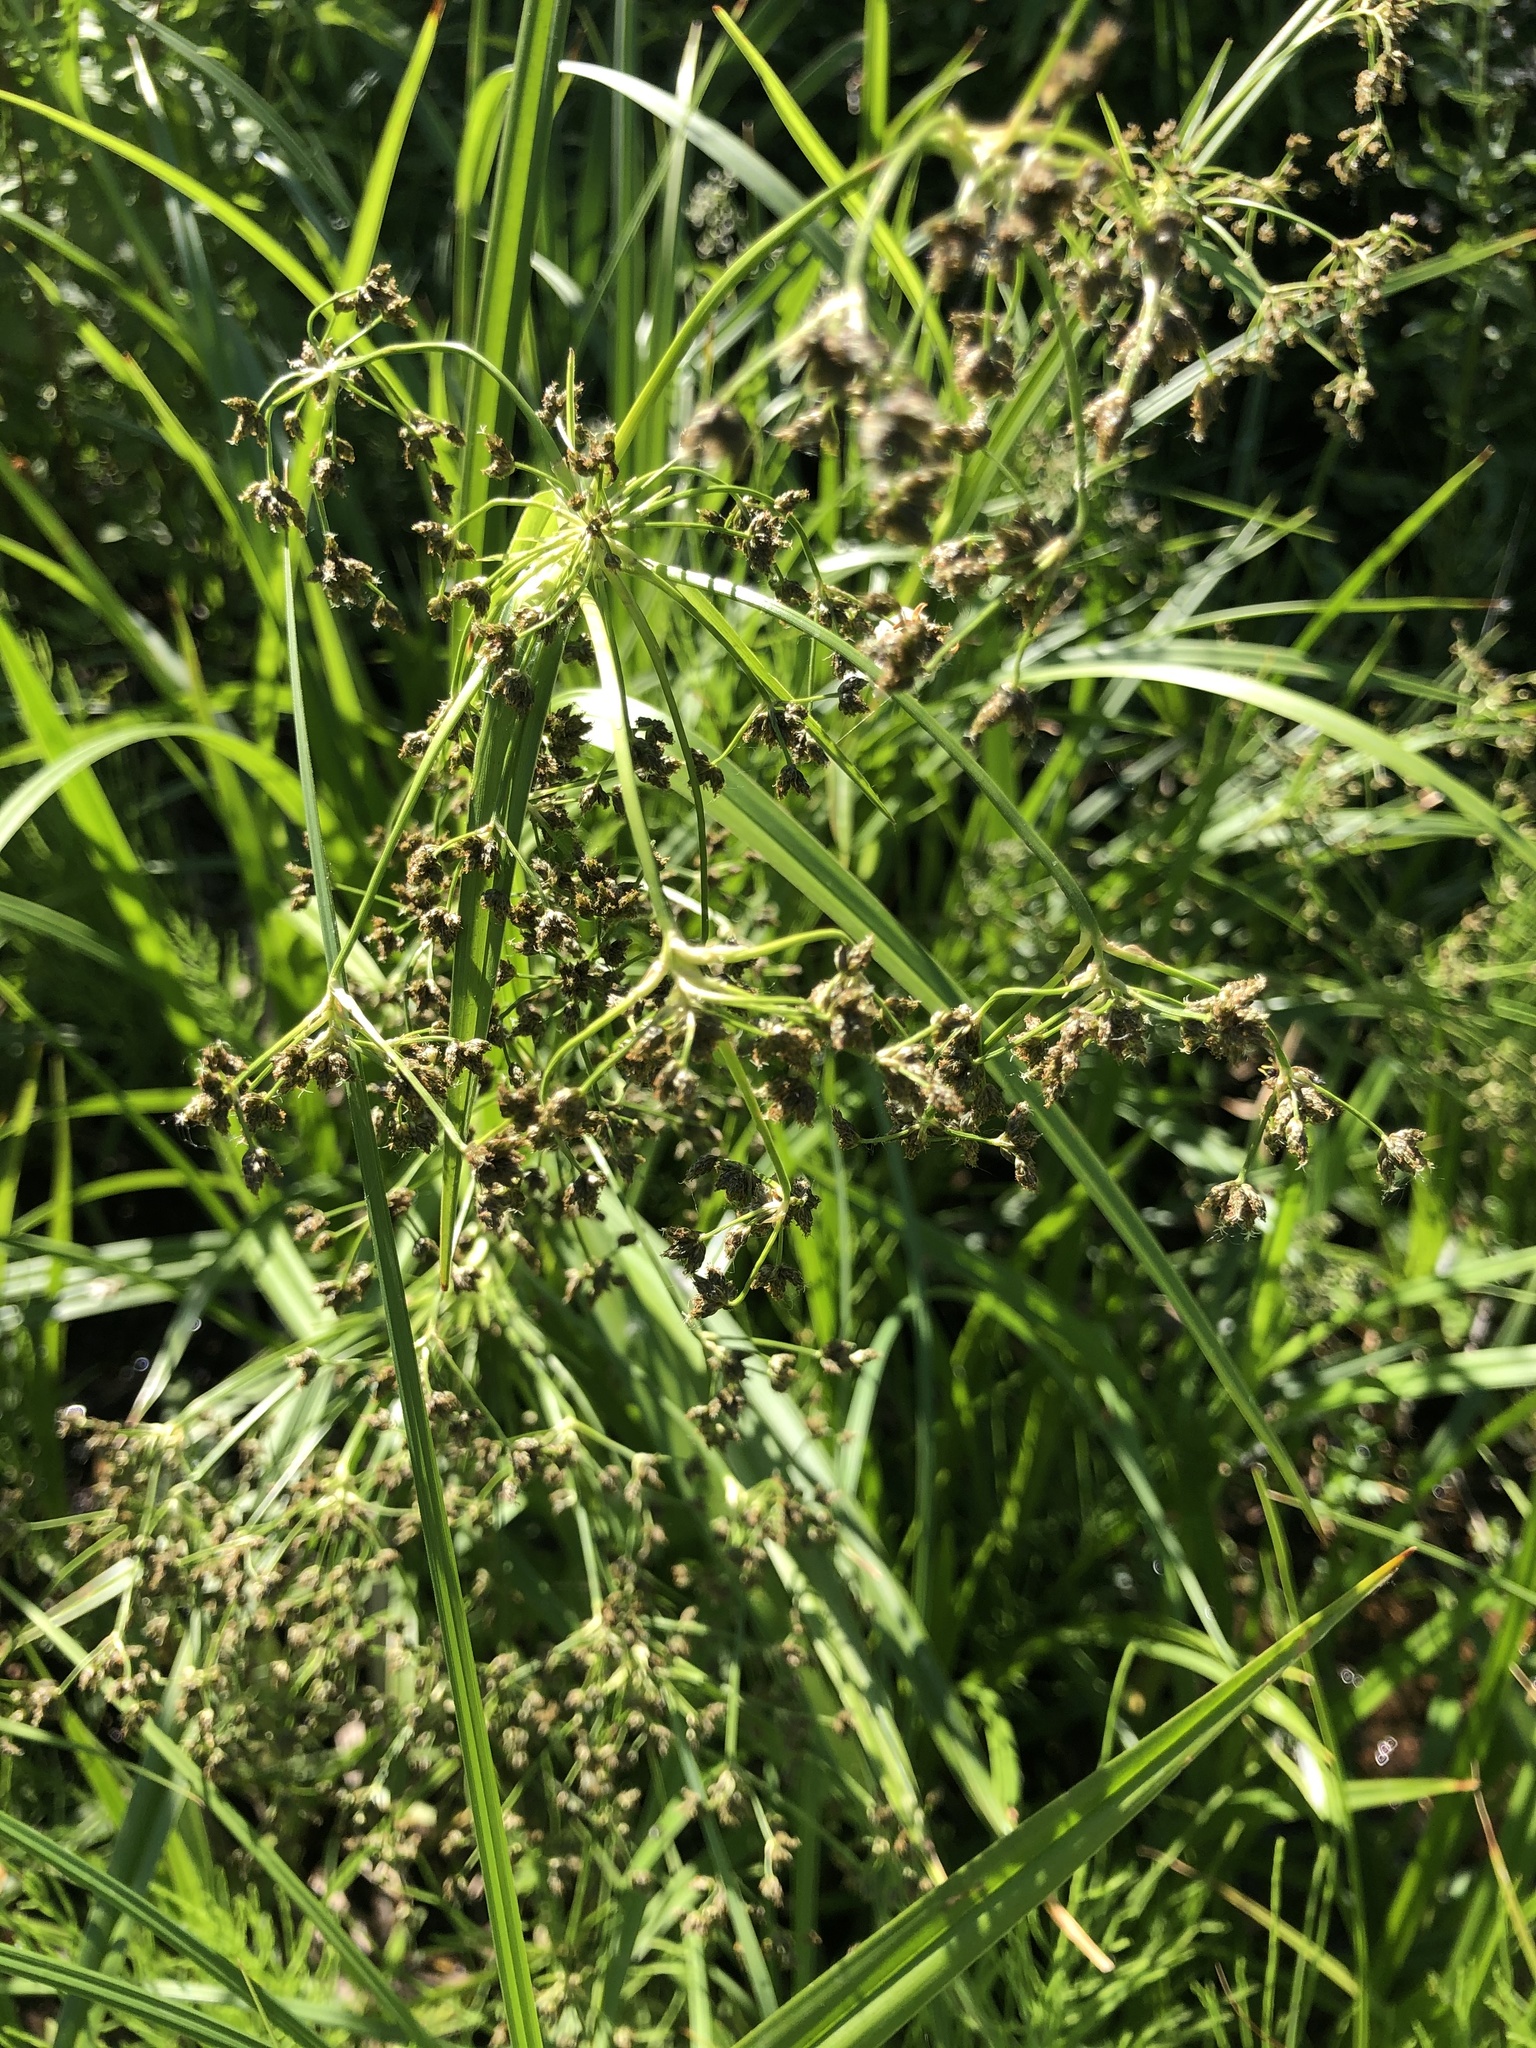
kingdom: Plantae
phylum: Tracheophyta
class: Liliopsida
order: Poales
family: Cyperaceae
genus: Scirpus
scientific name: Scirpus sylvaticus
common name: Wood club-rush
